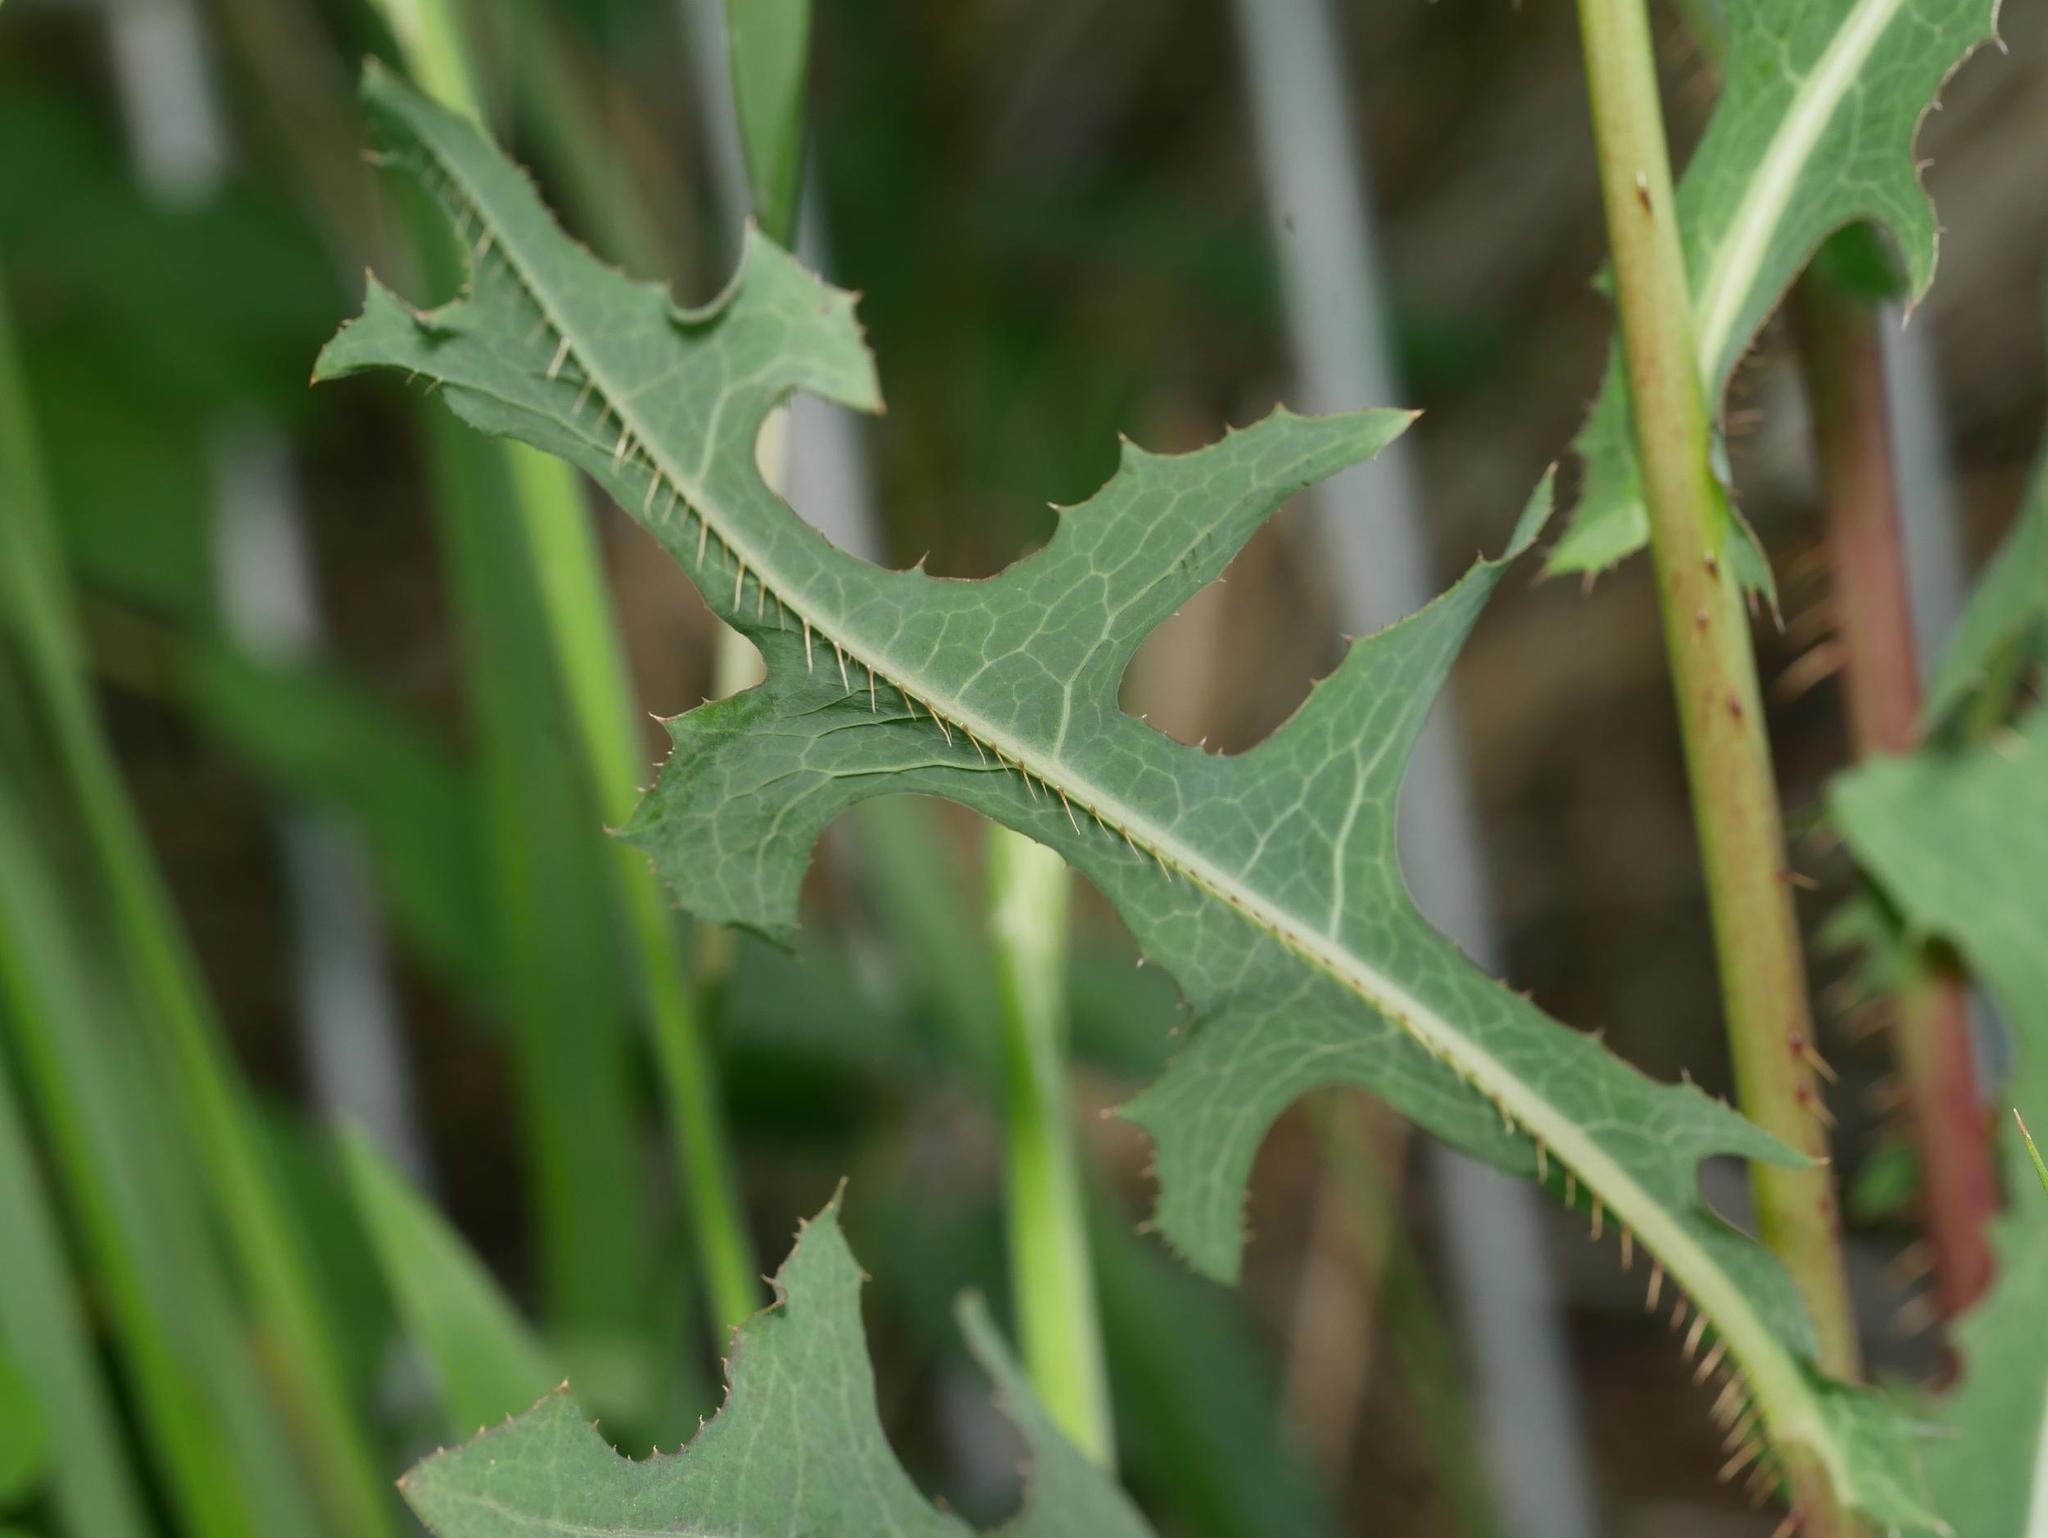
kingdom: Plantae
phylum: Tracheophyta
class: Magnoliopsida
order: Asterales
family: Asteraceae
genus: Lactuca
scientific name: Lactuca serriola
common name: Prickly lettuce
